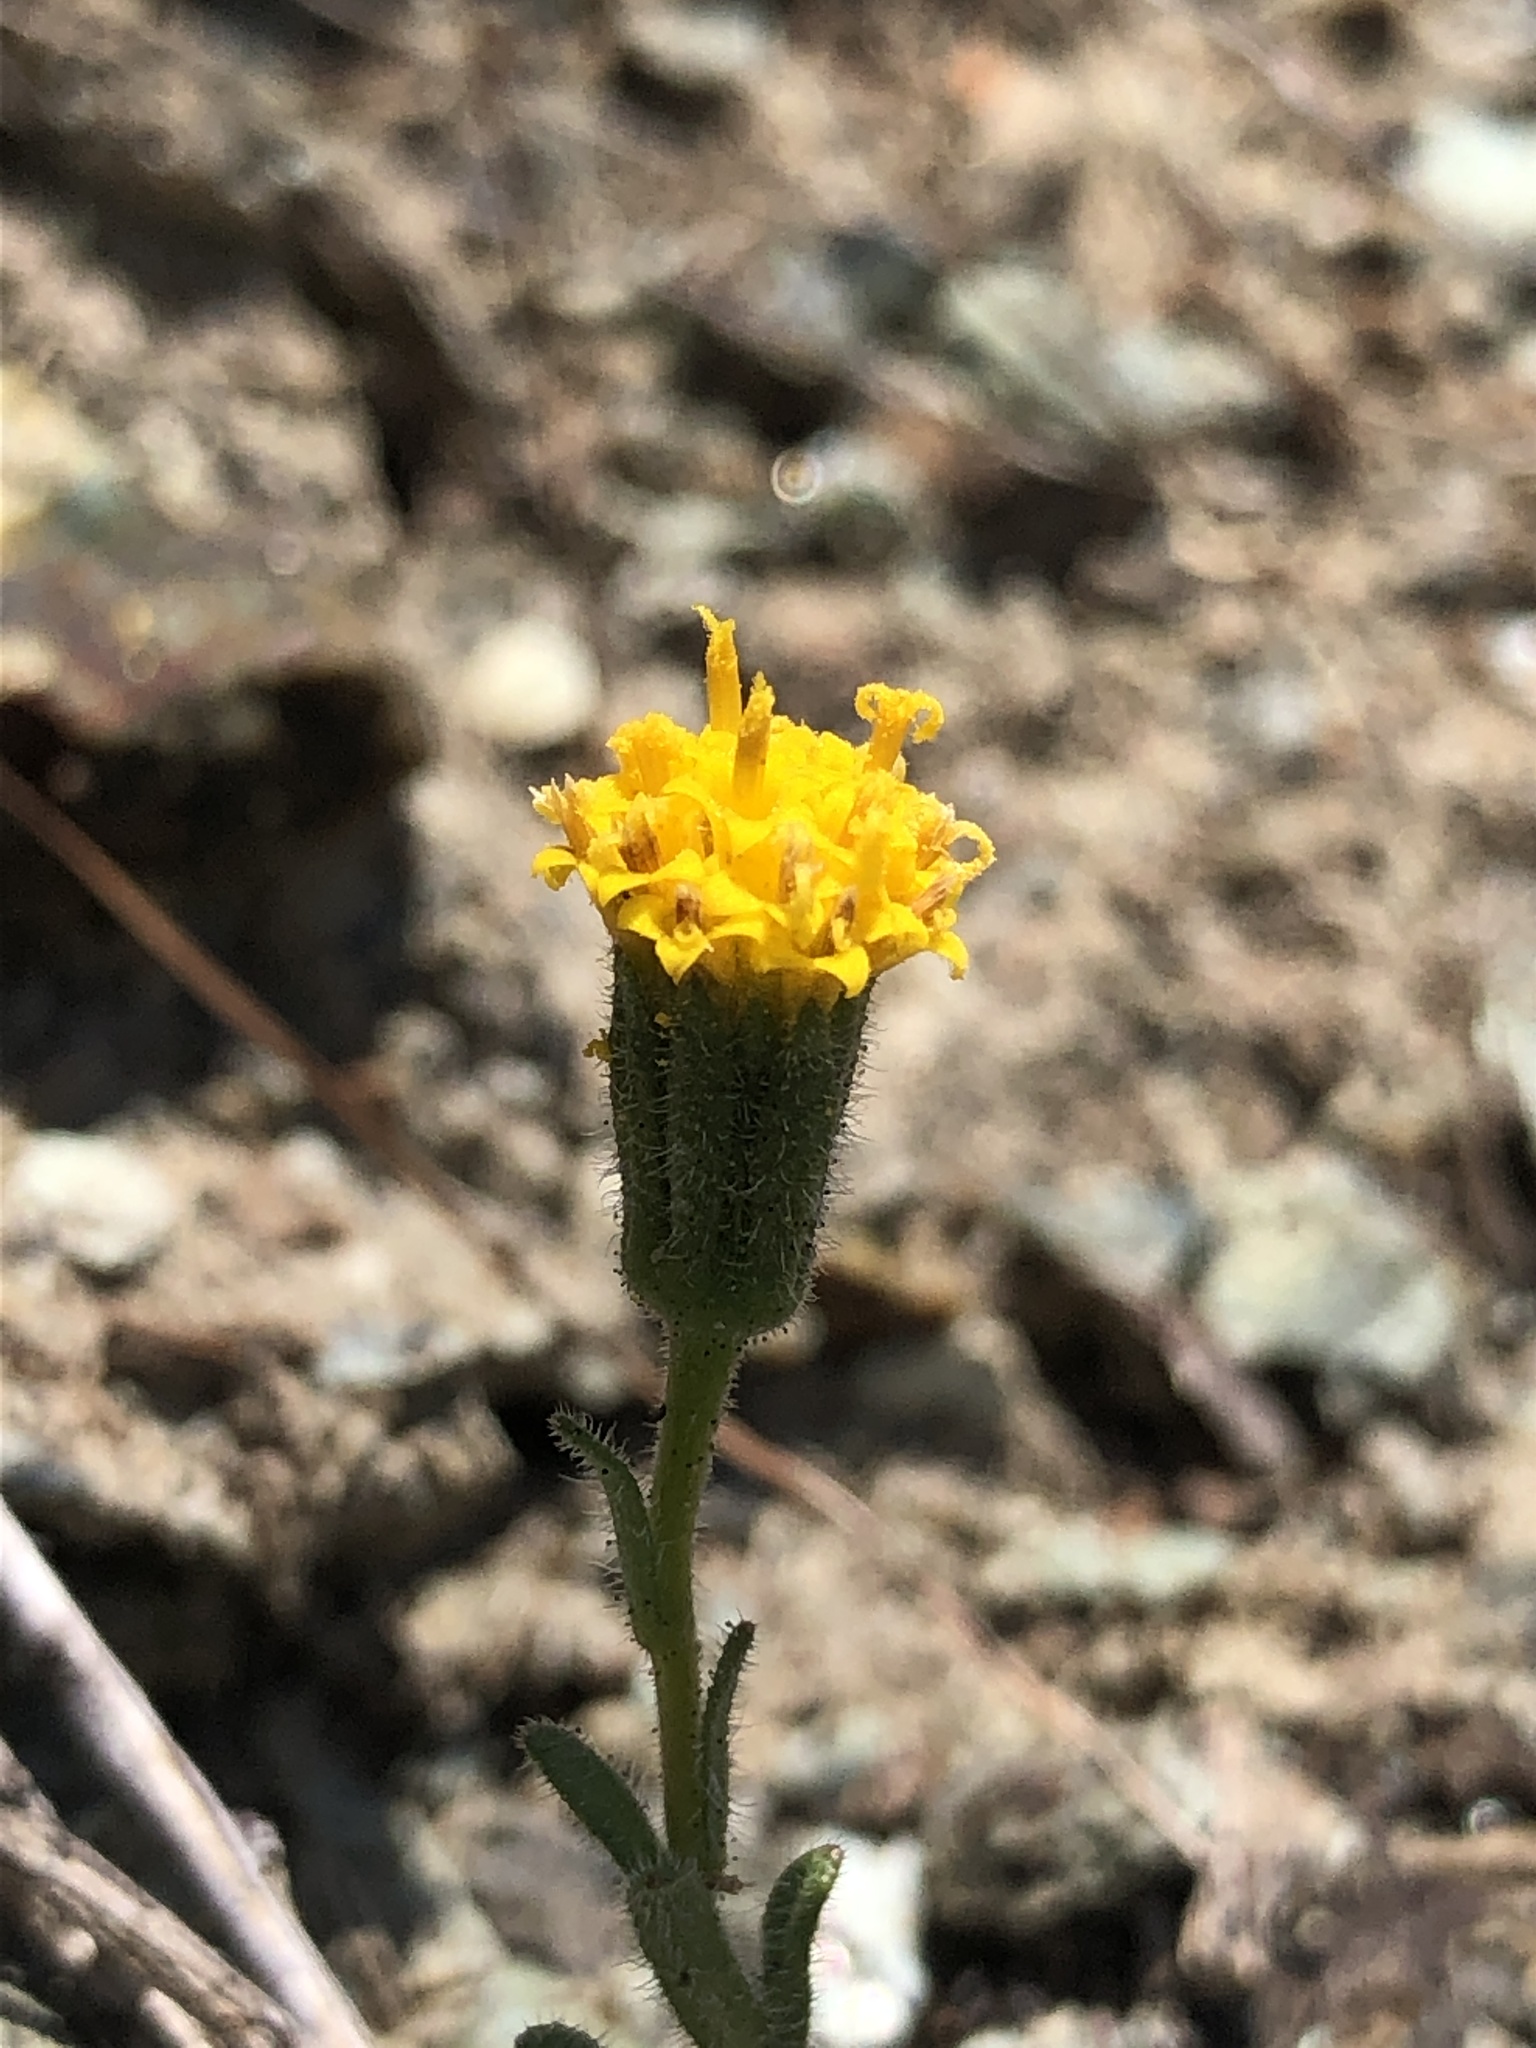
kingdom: Plantae
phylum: Tracheophyta
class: Magnoliopsida
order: Asterales
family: Asteraceae
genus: Layia
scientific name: Layia discoidea
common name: Rayless layia
